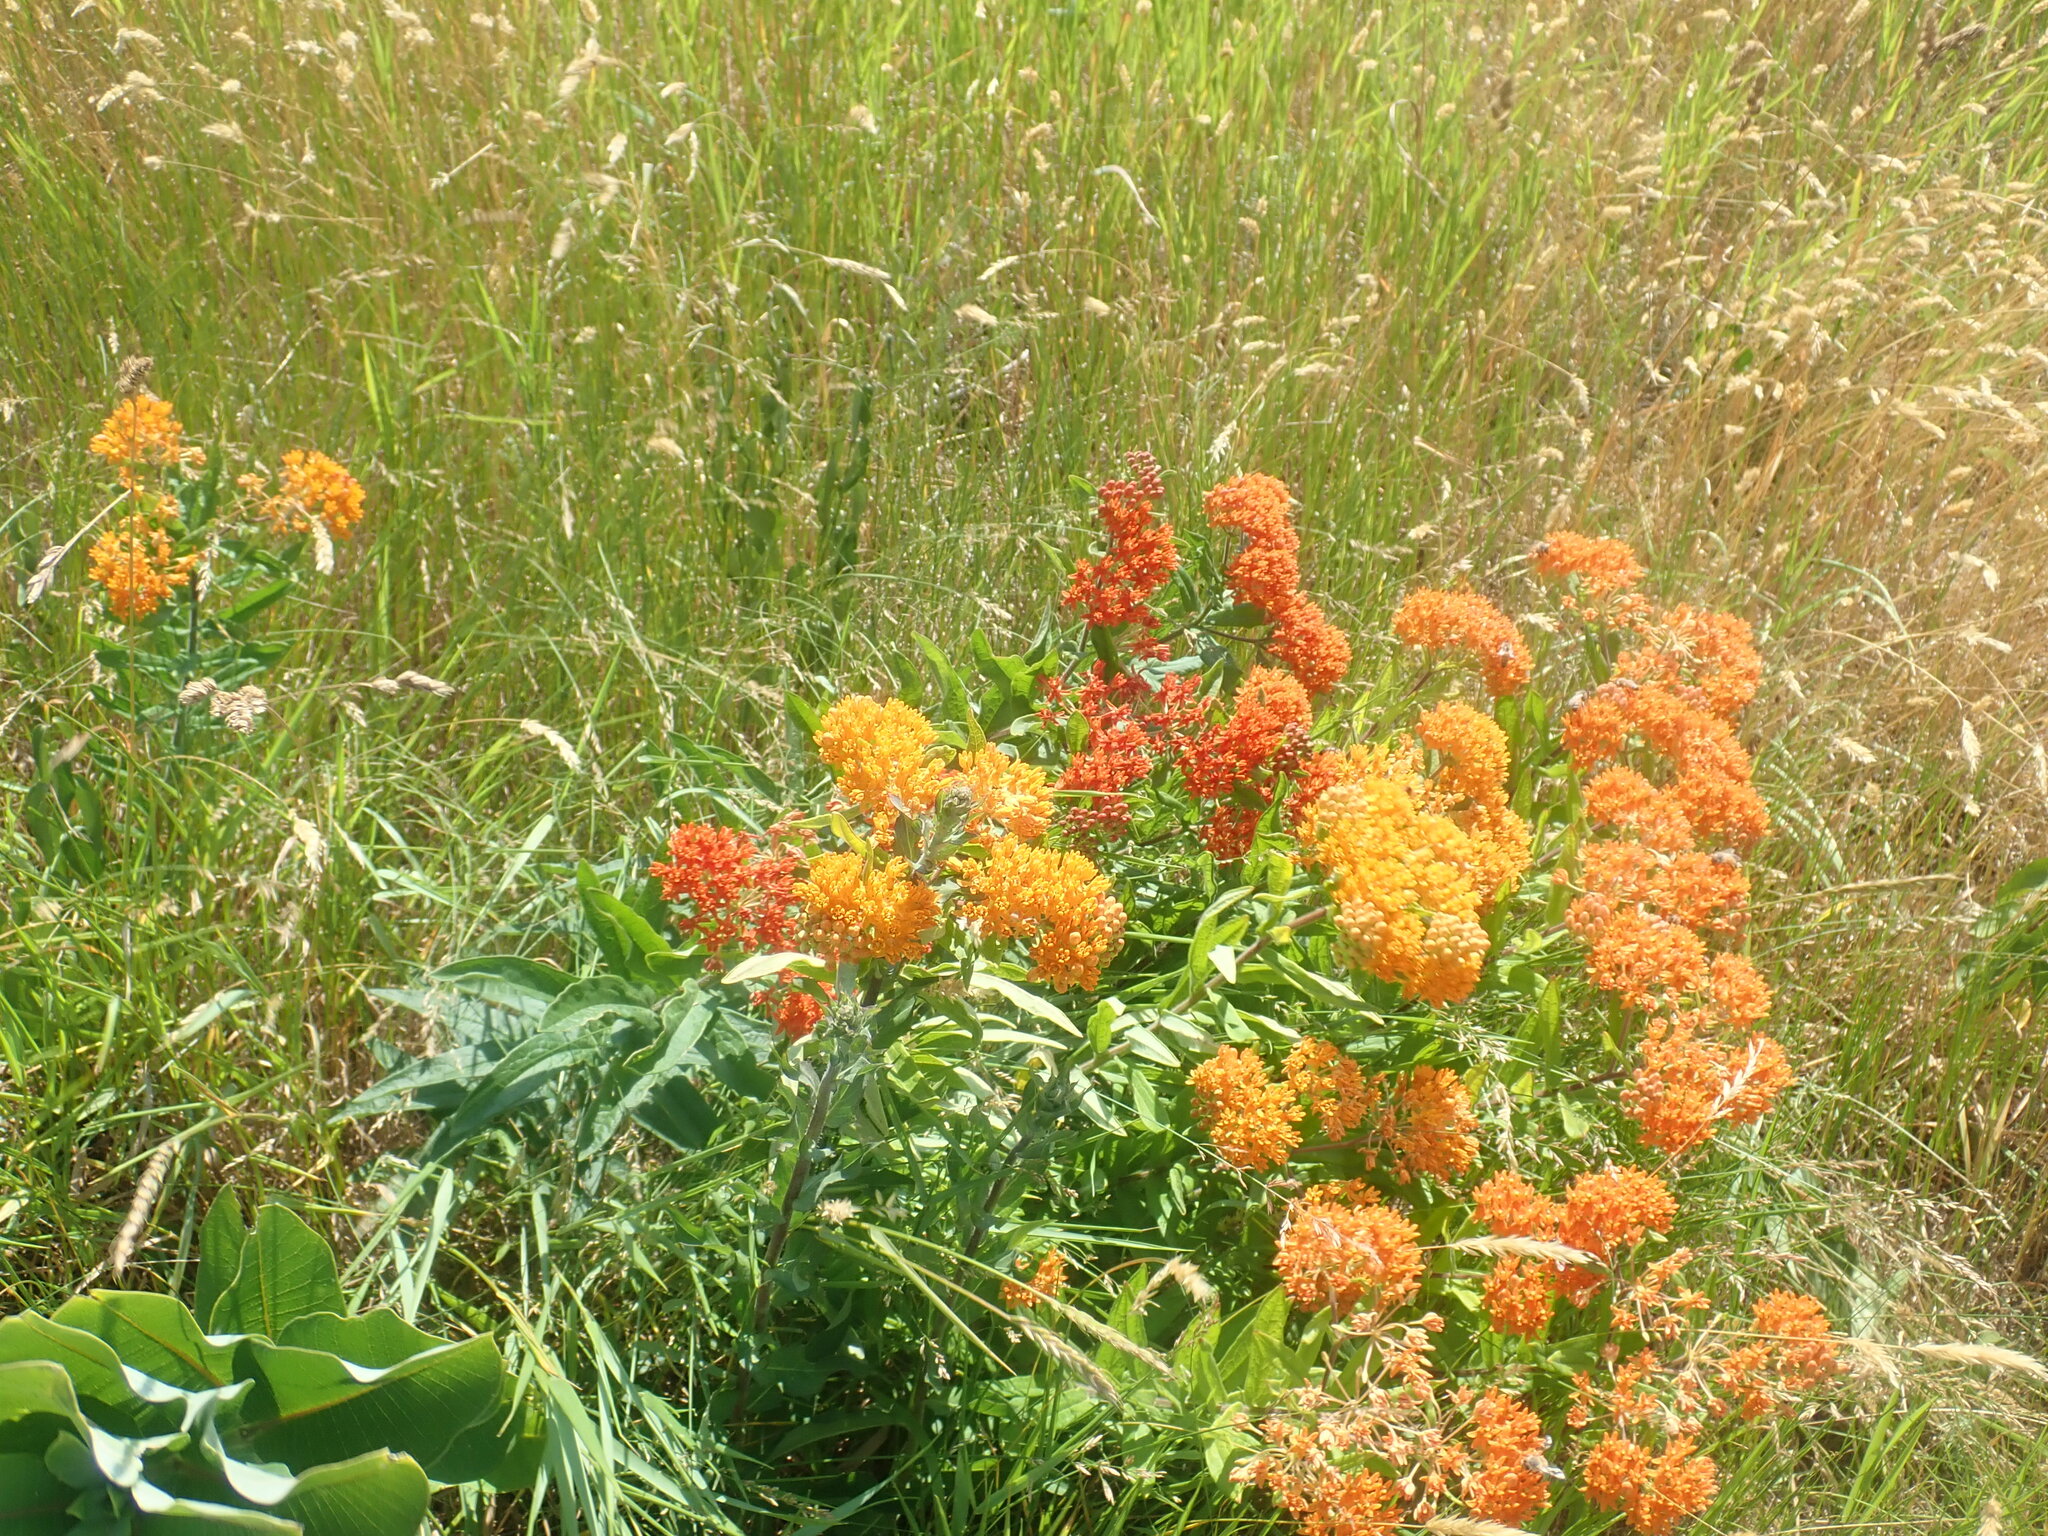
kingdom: Plantae
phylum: Tracheophyta
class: Magnoliopsida
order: Gentianales
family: Apocynaceae
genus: Asclepias
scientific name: Asclepias tuberosa
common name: Butterfly milkweed
